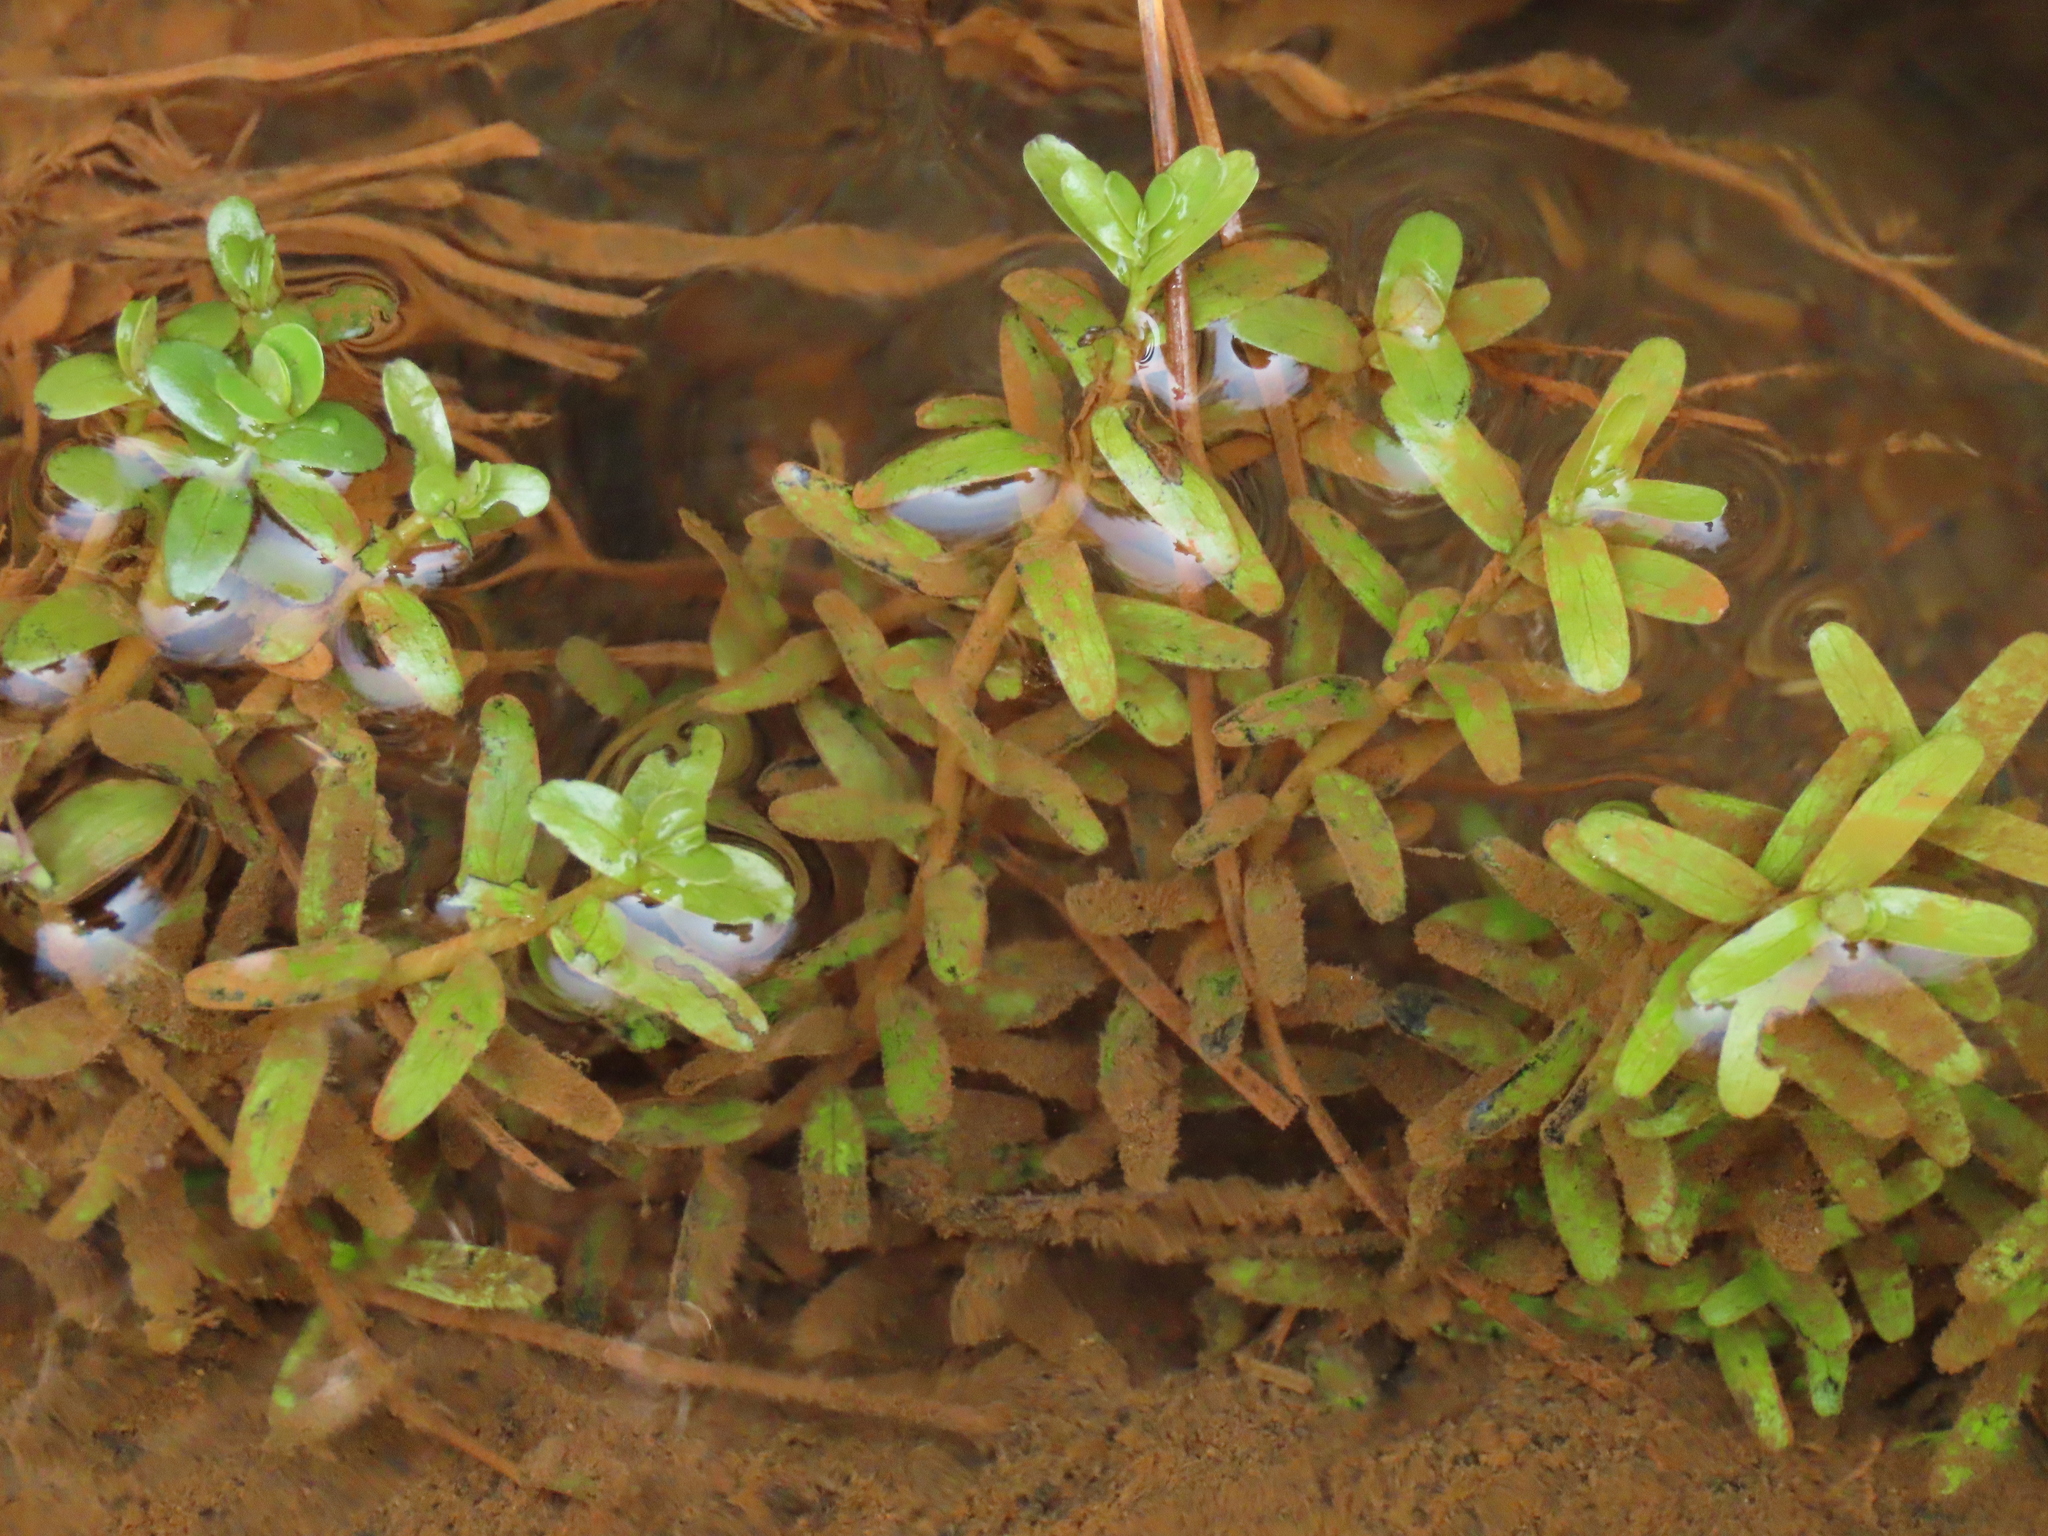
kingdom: Plantae
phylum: Tracheophyta
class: Magnoliopsida
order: Myrtales
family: Lythraceae
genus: Rotala
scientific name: Rotala rotundifolia
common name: Roundleaf toothcup
